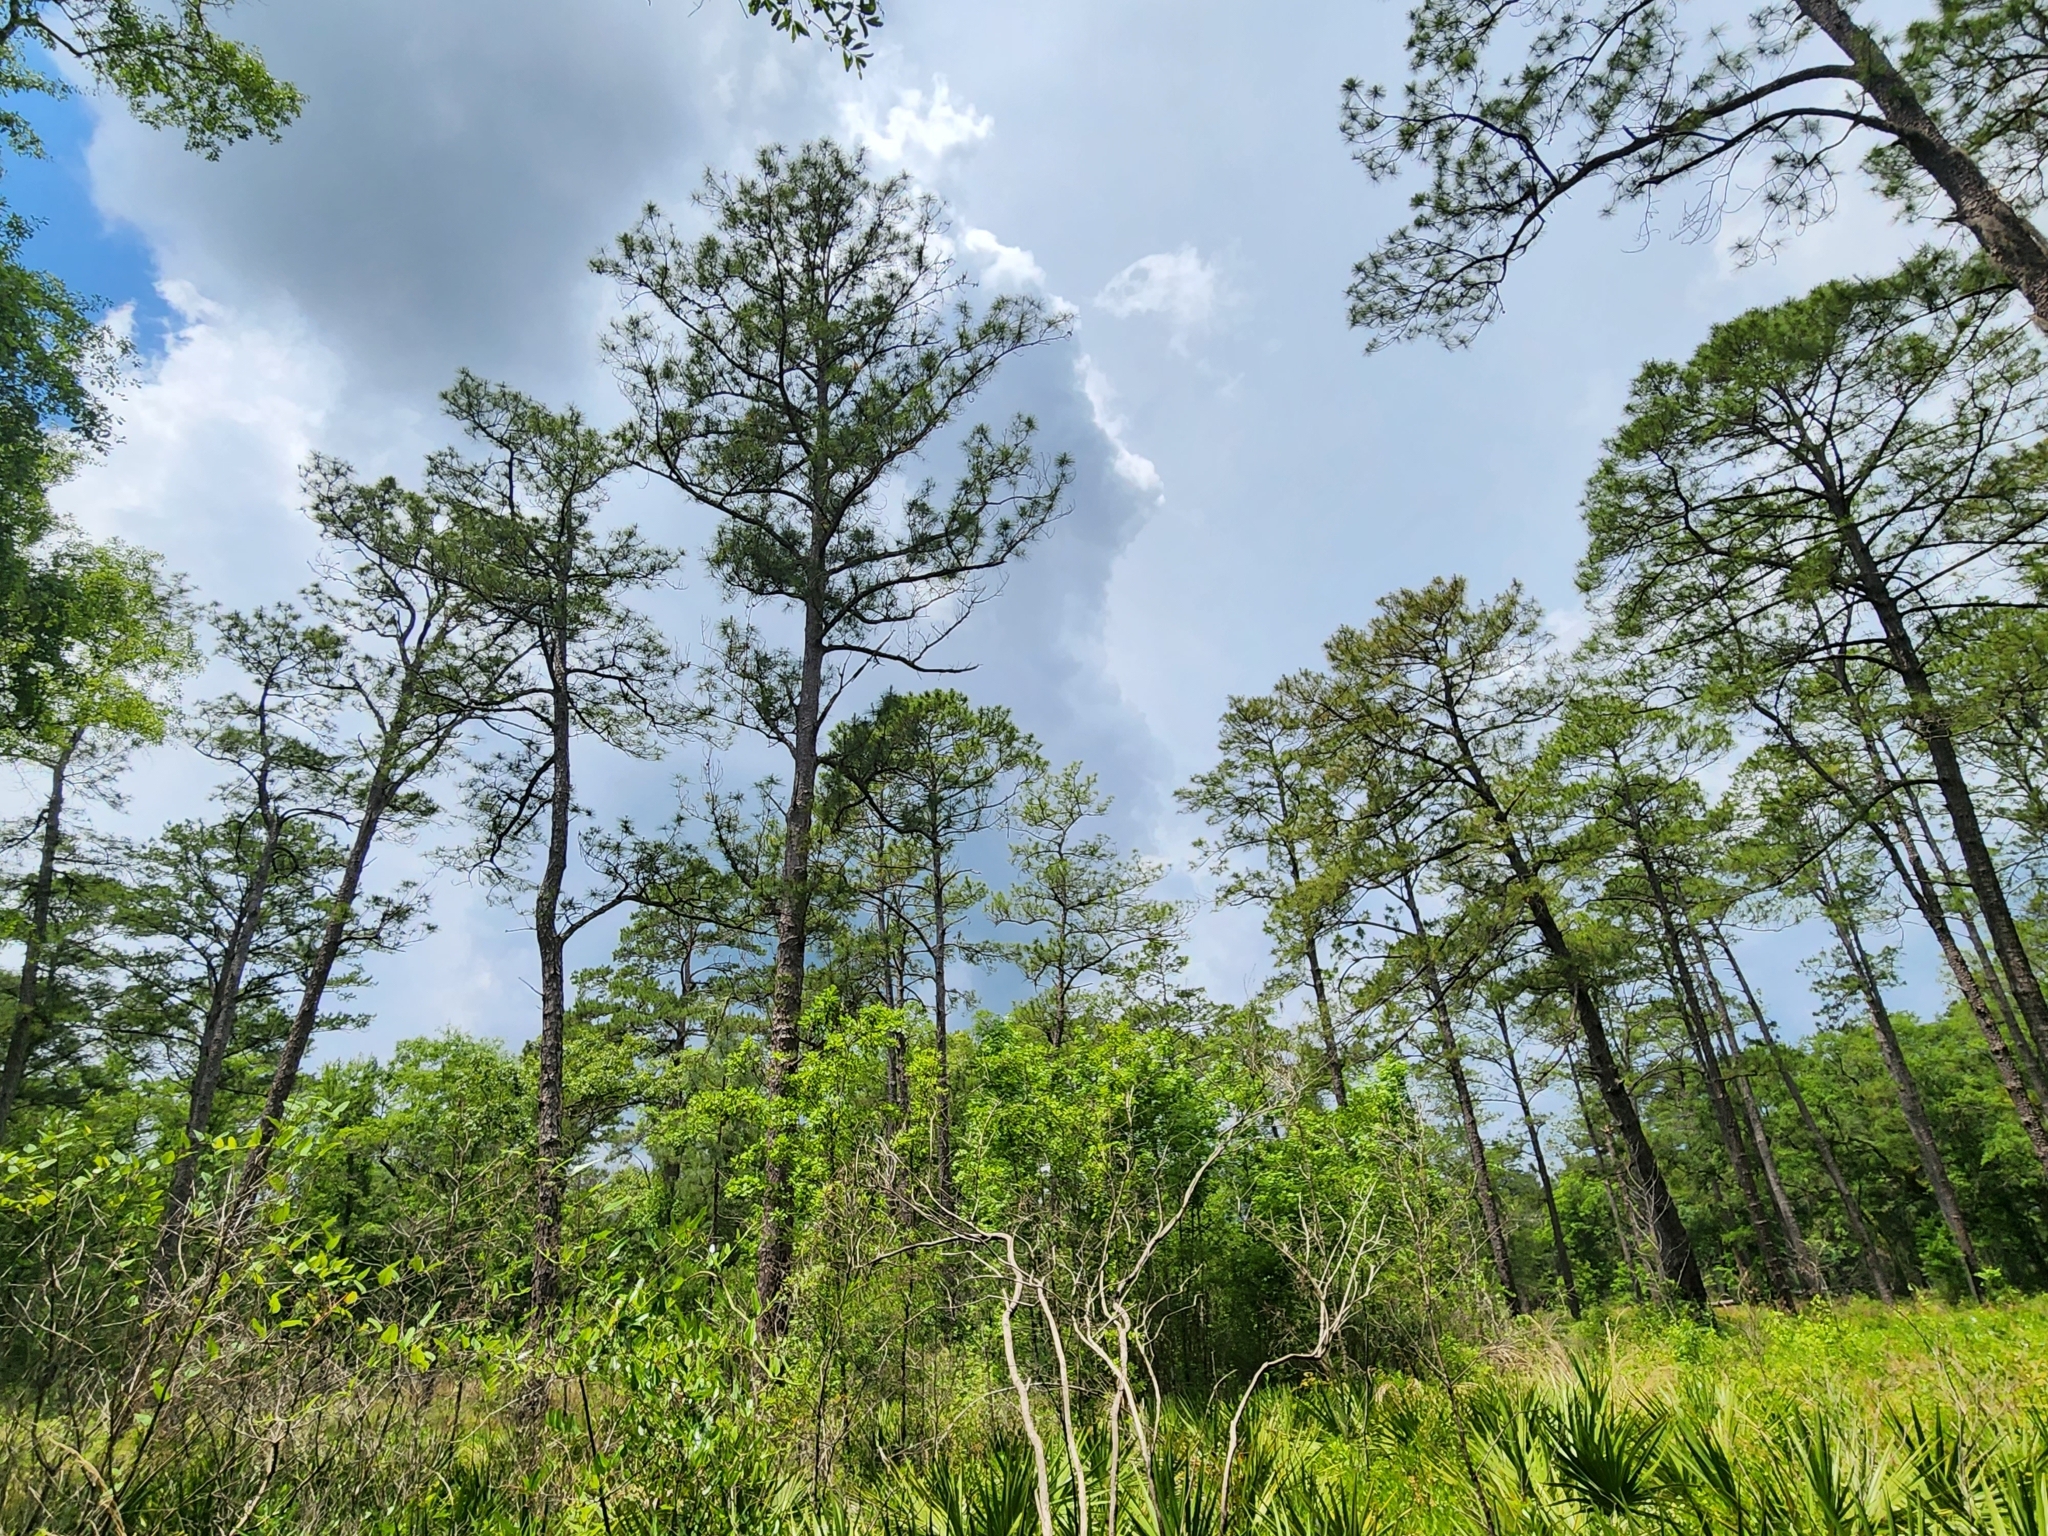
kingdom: Plantae
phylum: Tracheophyta
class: Pinopsida
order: Pinales
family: Pinaceae
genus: Pinus
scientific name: Pinus serotina
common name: Marsh pine
